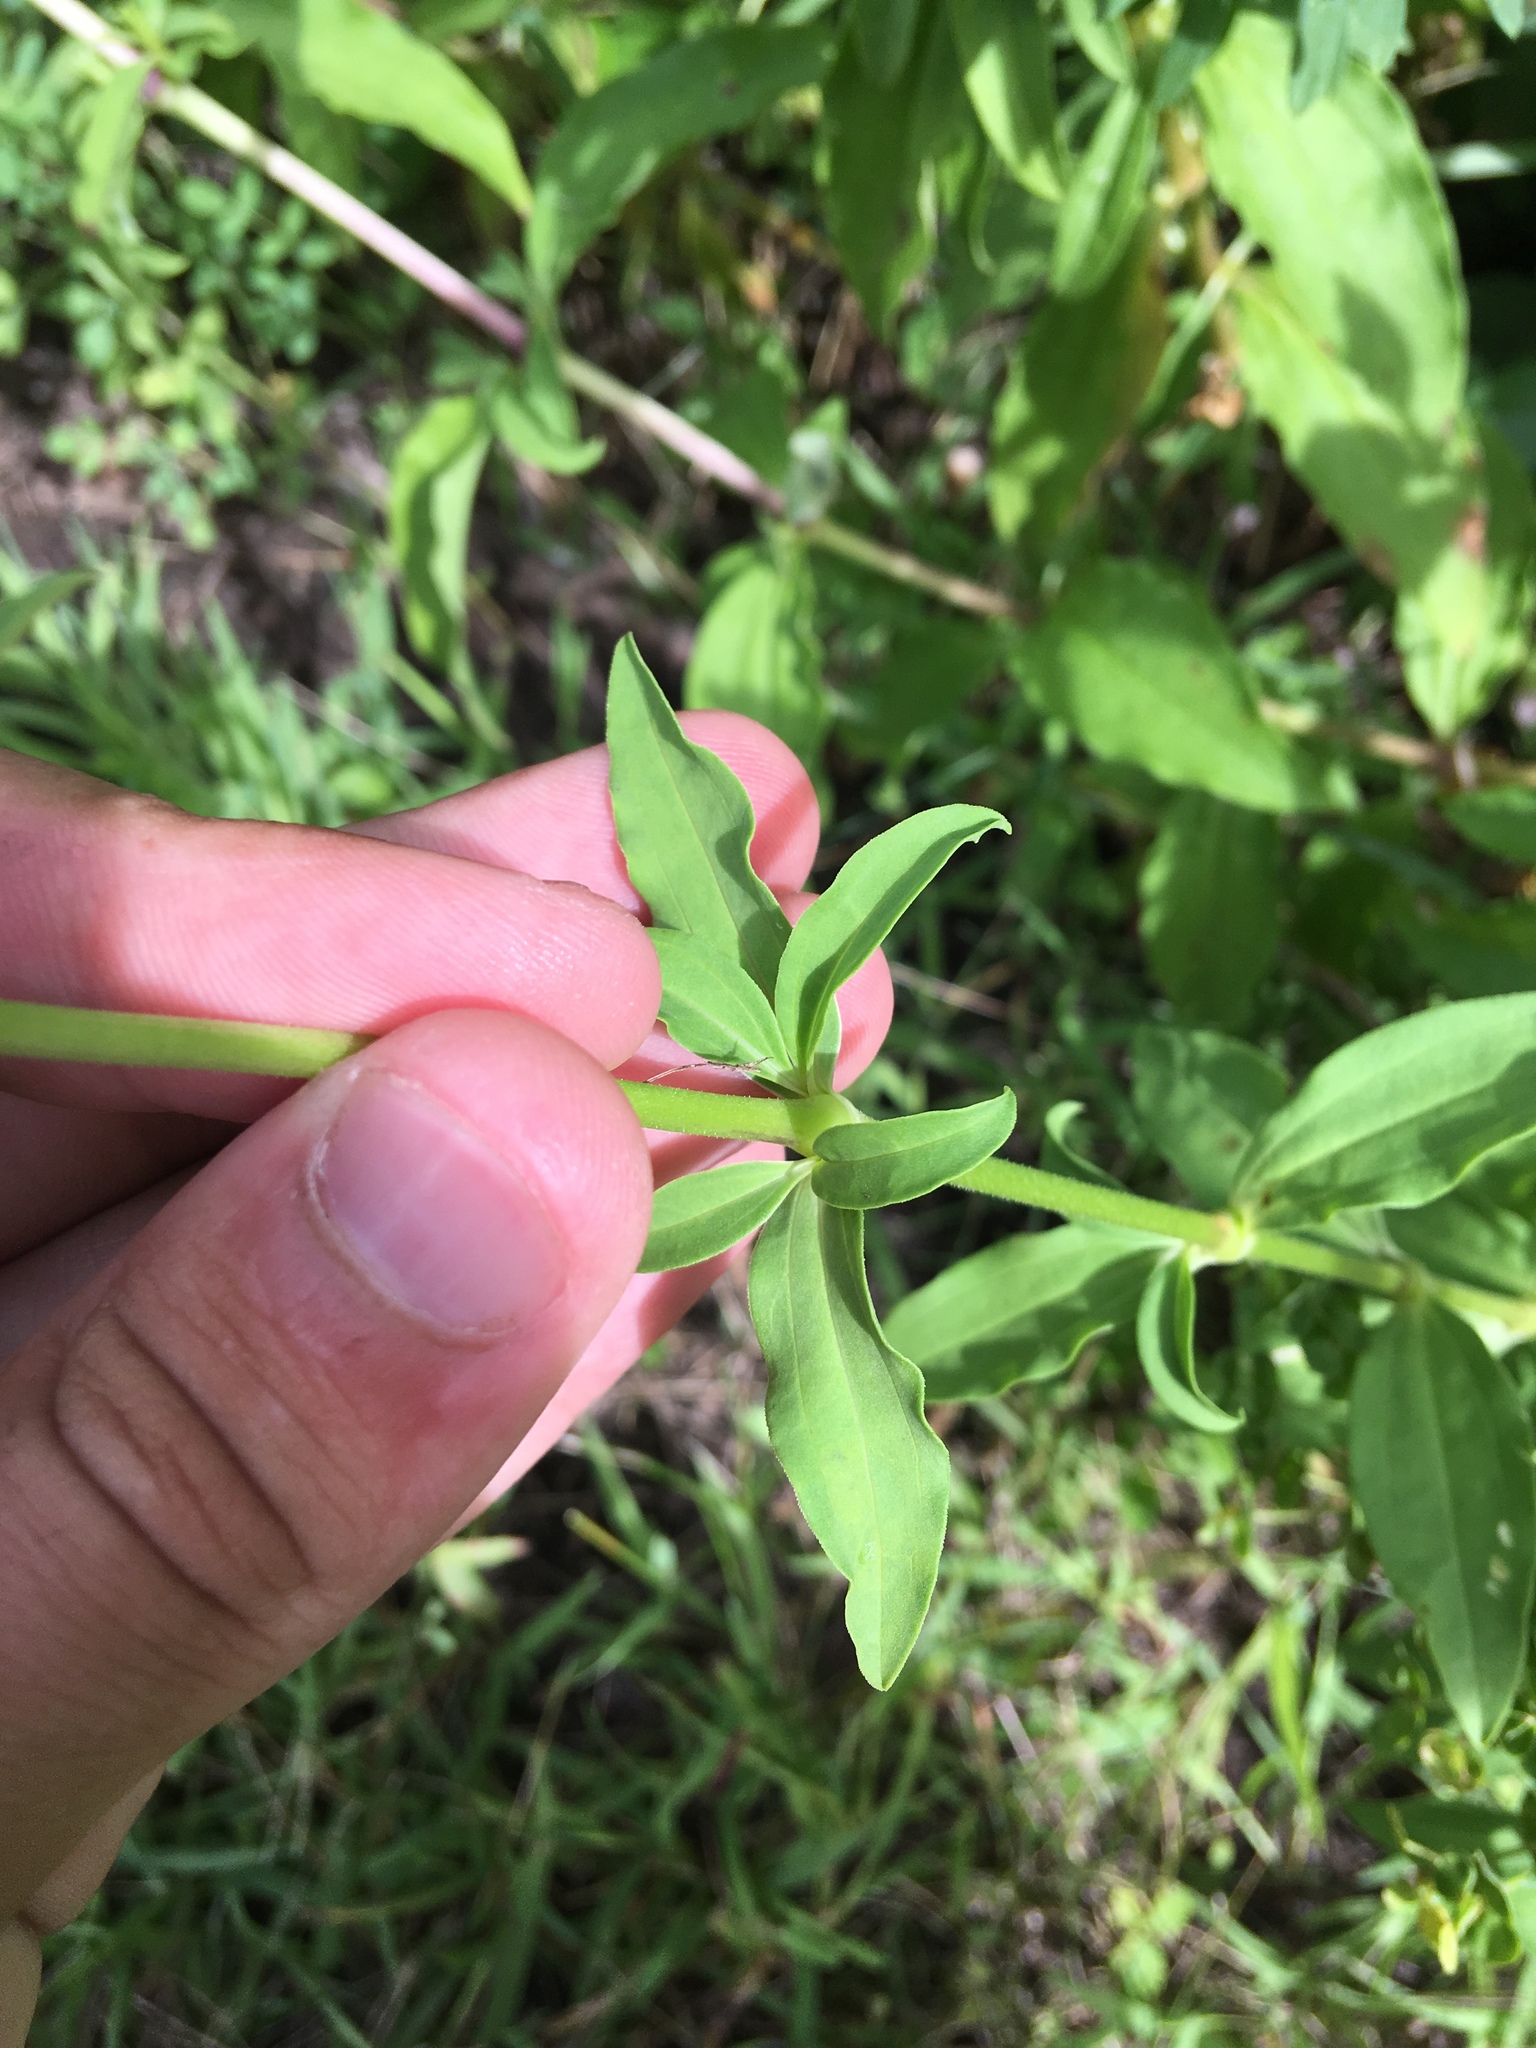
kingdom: Plantae
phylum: Tracheophyta
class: Magnoliopsida
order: Caryophyllales
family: Caryophyllaceae
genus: Saponaria
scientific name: Saponaria officinalis
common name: Soapwort
